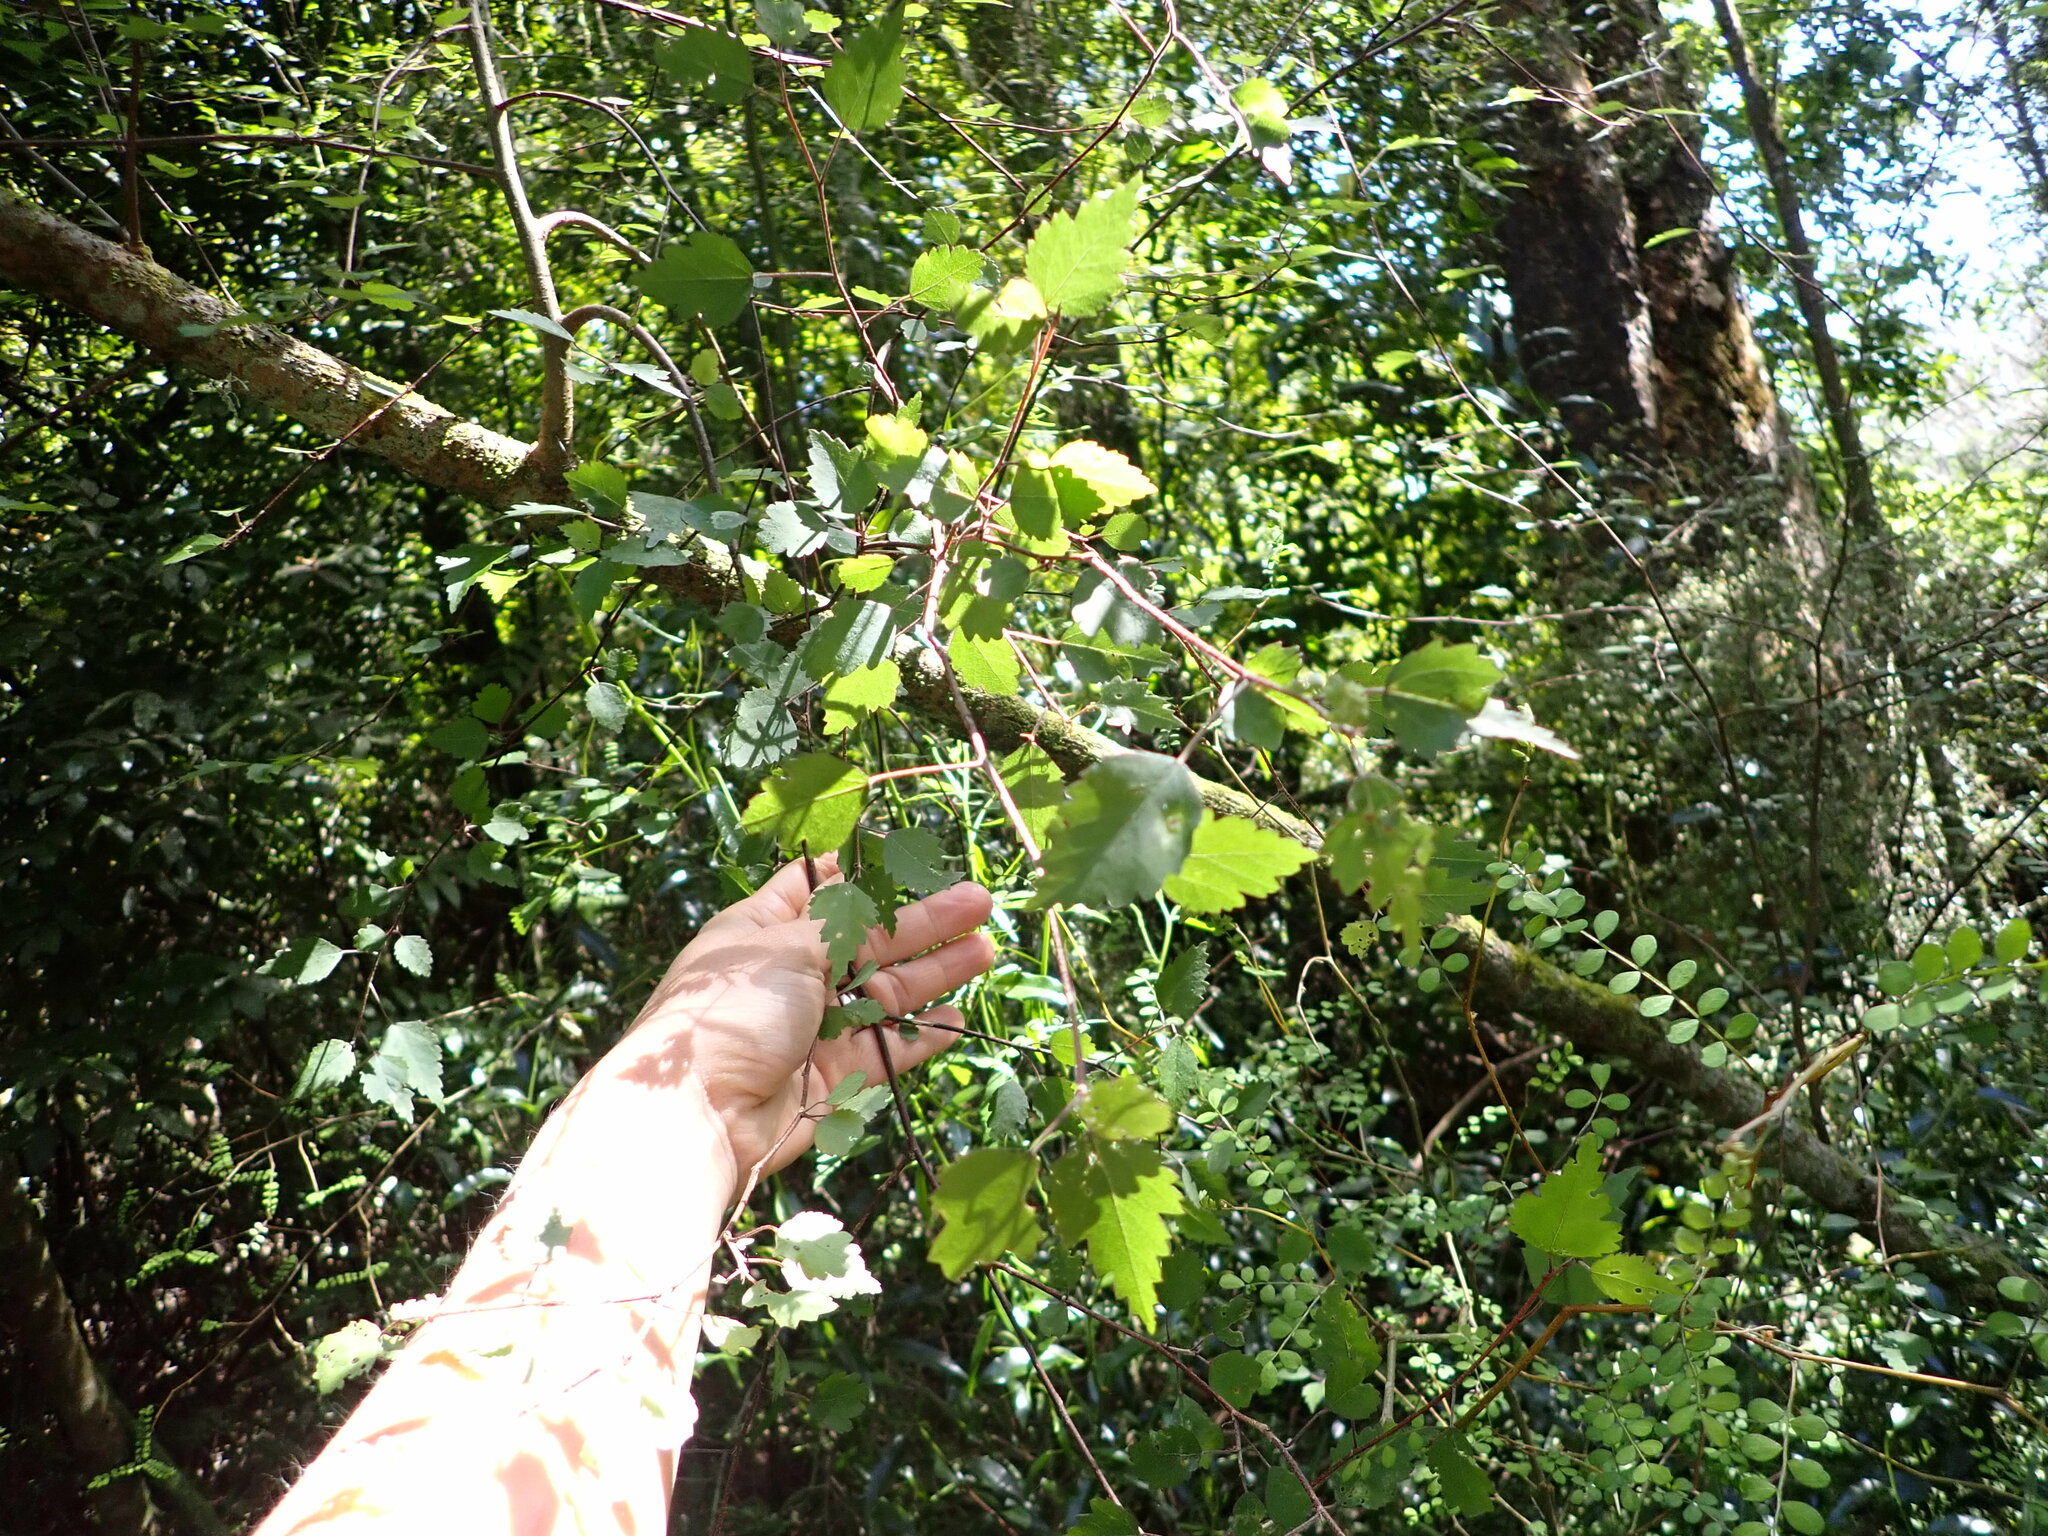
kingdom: Plantae
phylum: Tracheophyta
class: Magnoliopsida
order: Malvales
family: Malvaceae
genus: Plagianthus
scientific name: Plagianthus regius
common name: Manatu
